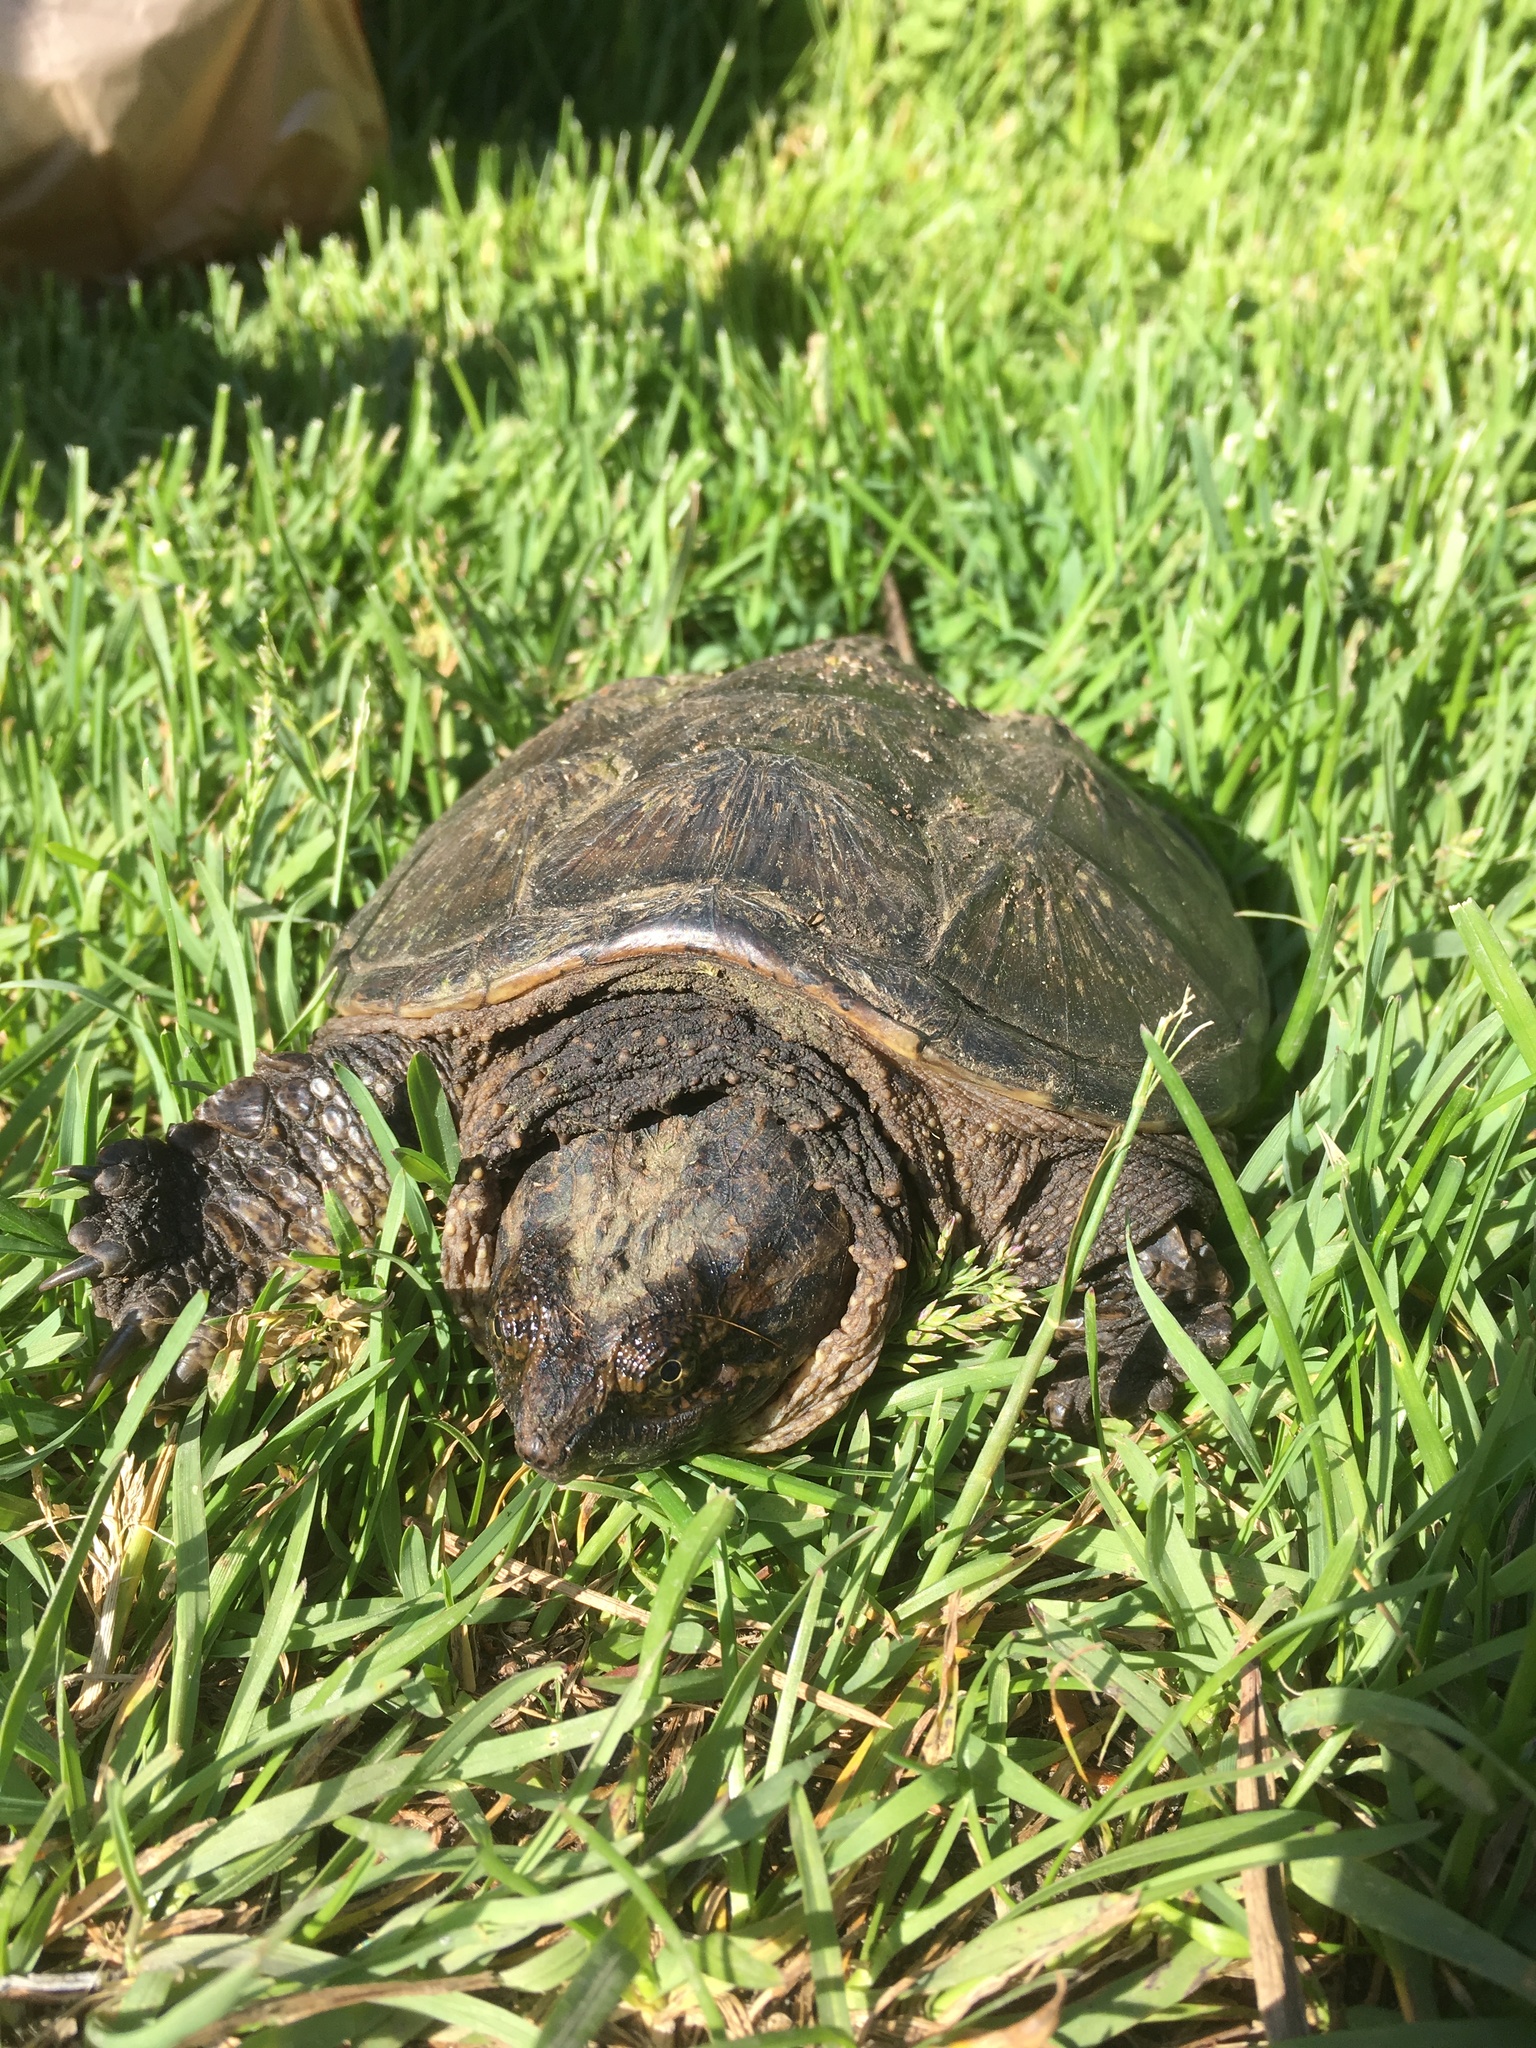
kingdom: Animalia
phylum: Chordata
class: Testudines
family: Chelydridae
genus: Chelydra
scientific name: Chelydra serpentina
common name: Common snapping turtle
